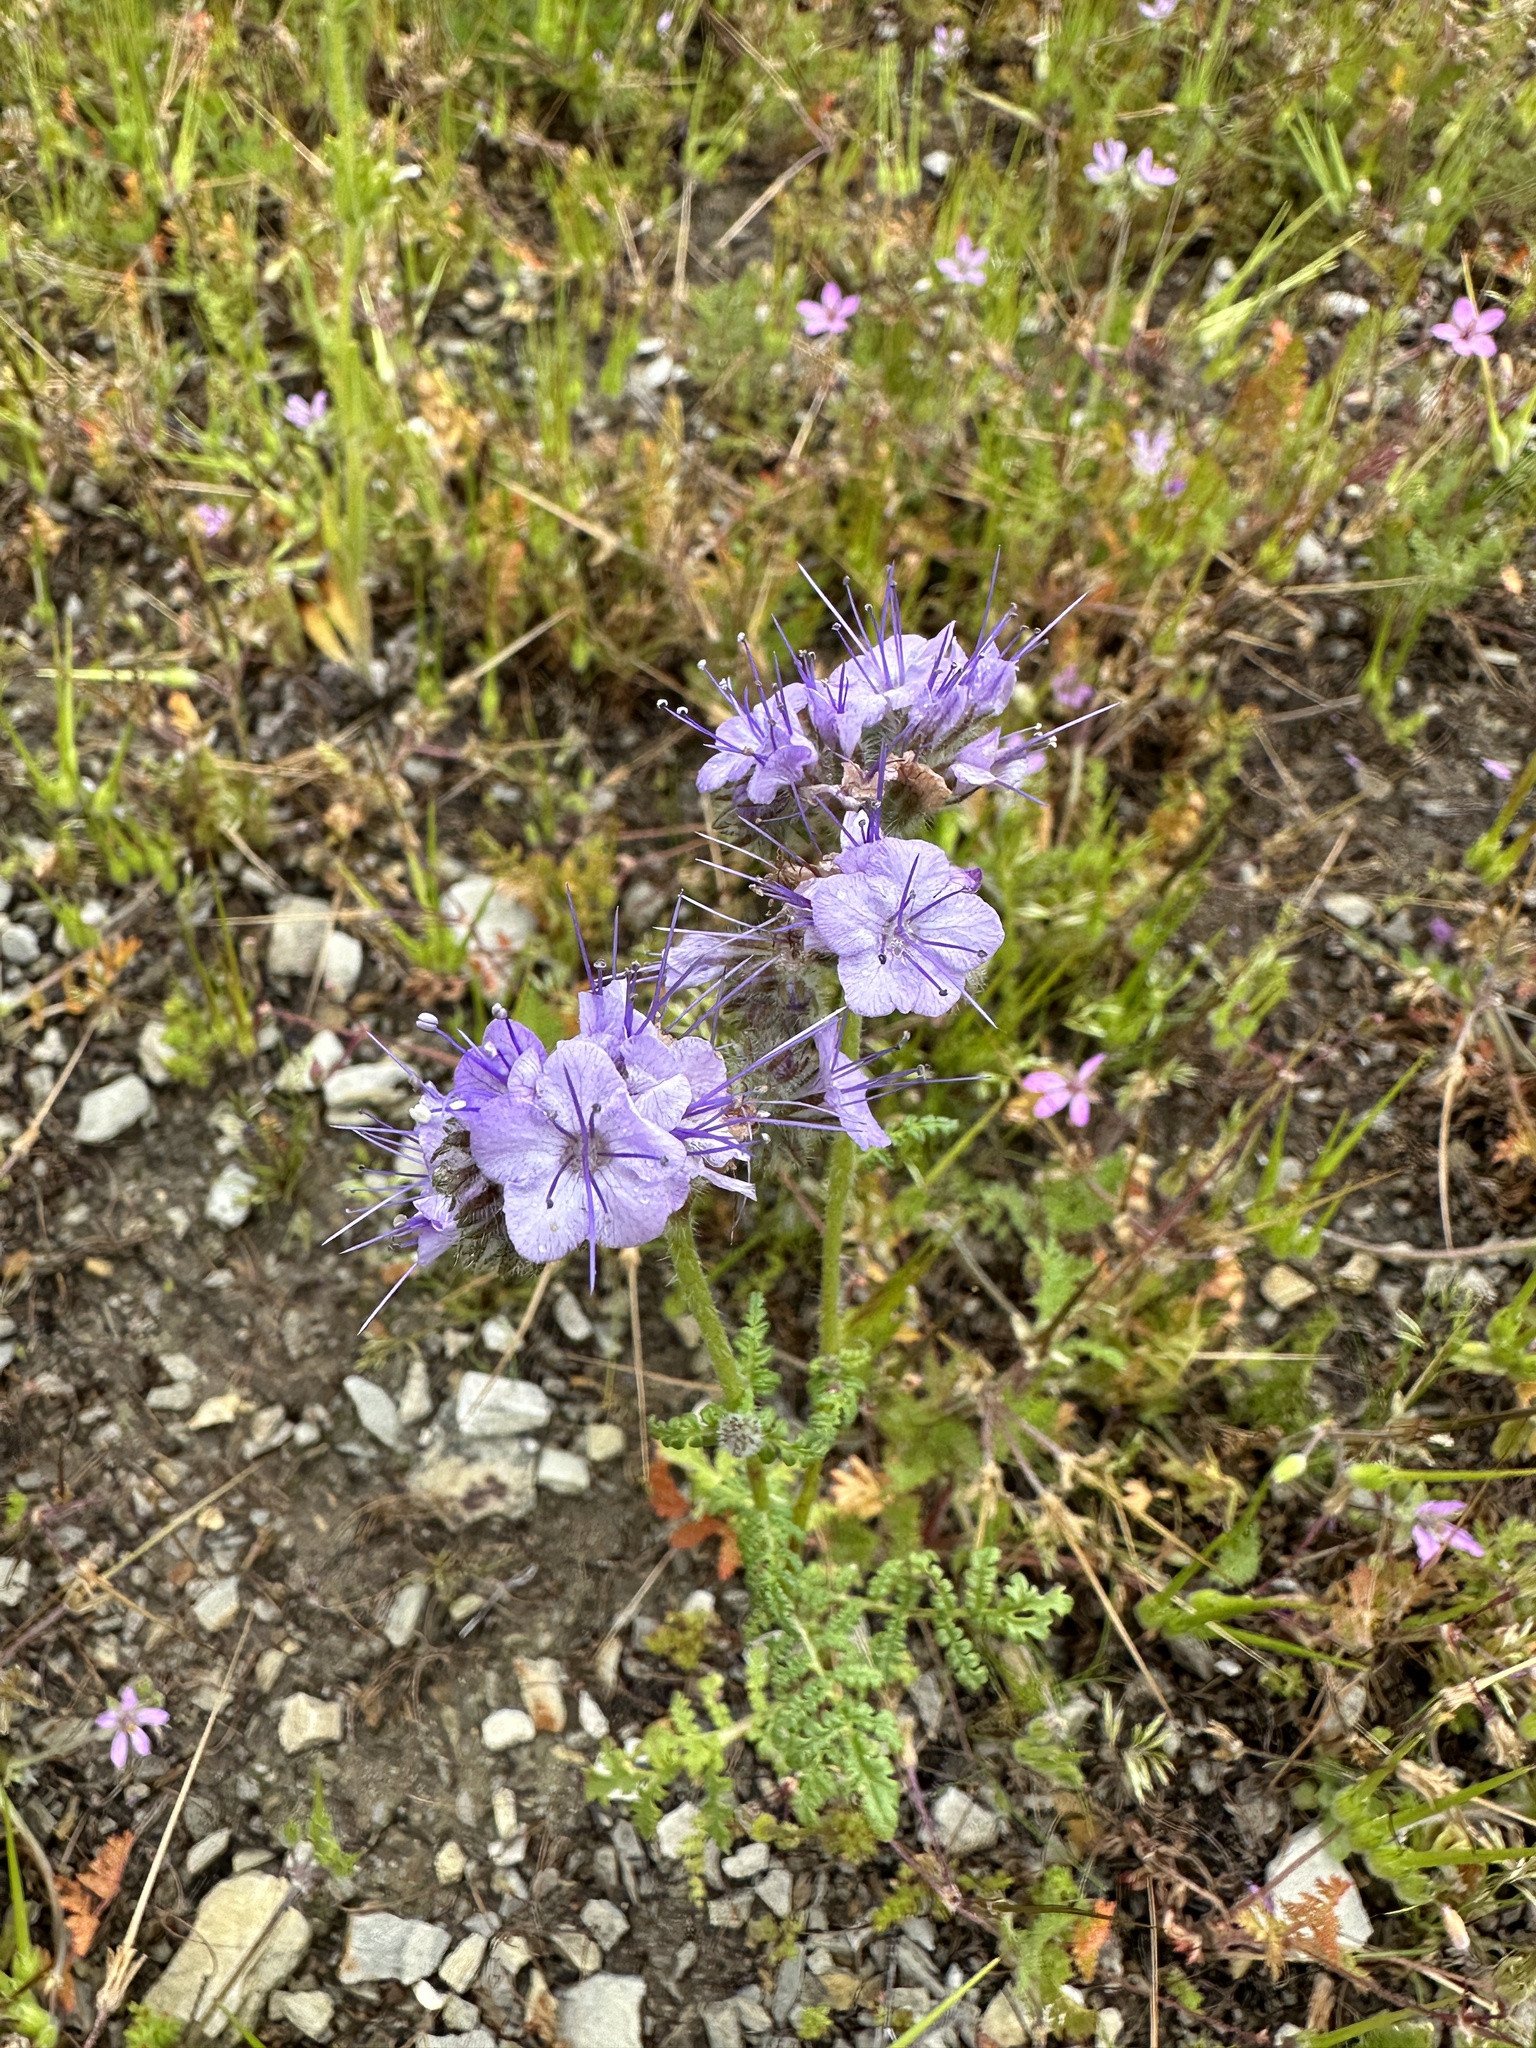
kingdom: Plantae
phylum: Tracheophyta
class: Magnoliopsida
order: Boraginales
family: Hydrophyllaceae
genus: Phacelia
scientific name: Phacelia tanacetifolia
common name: Phacelia
